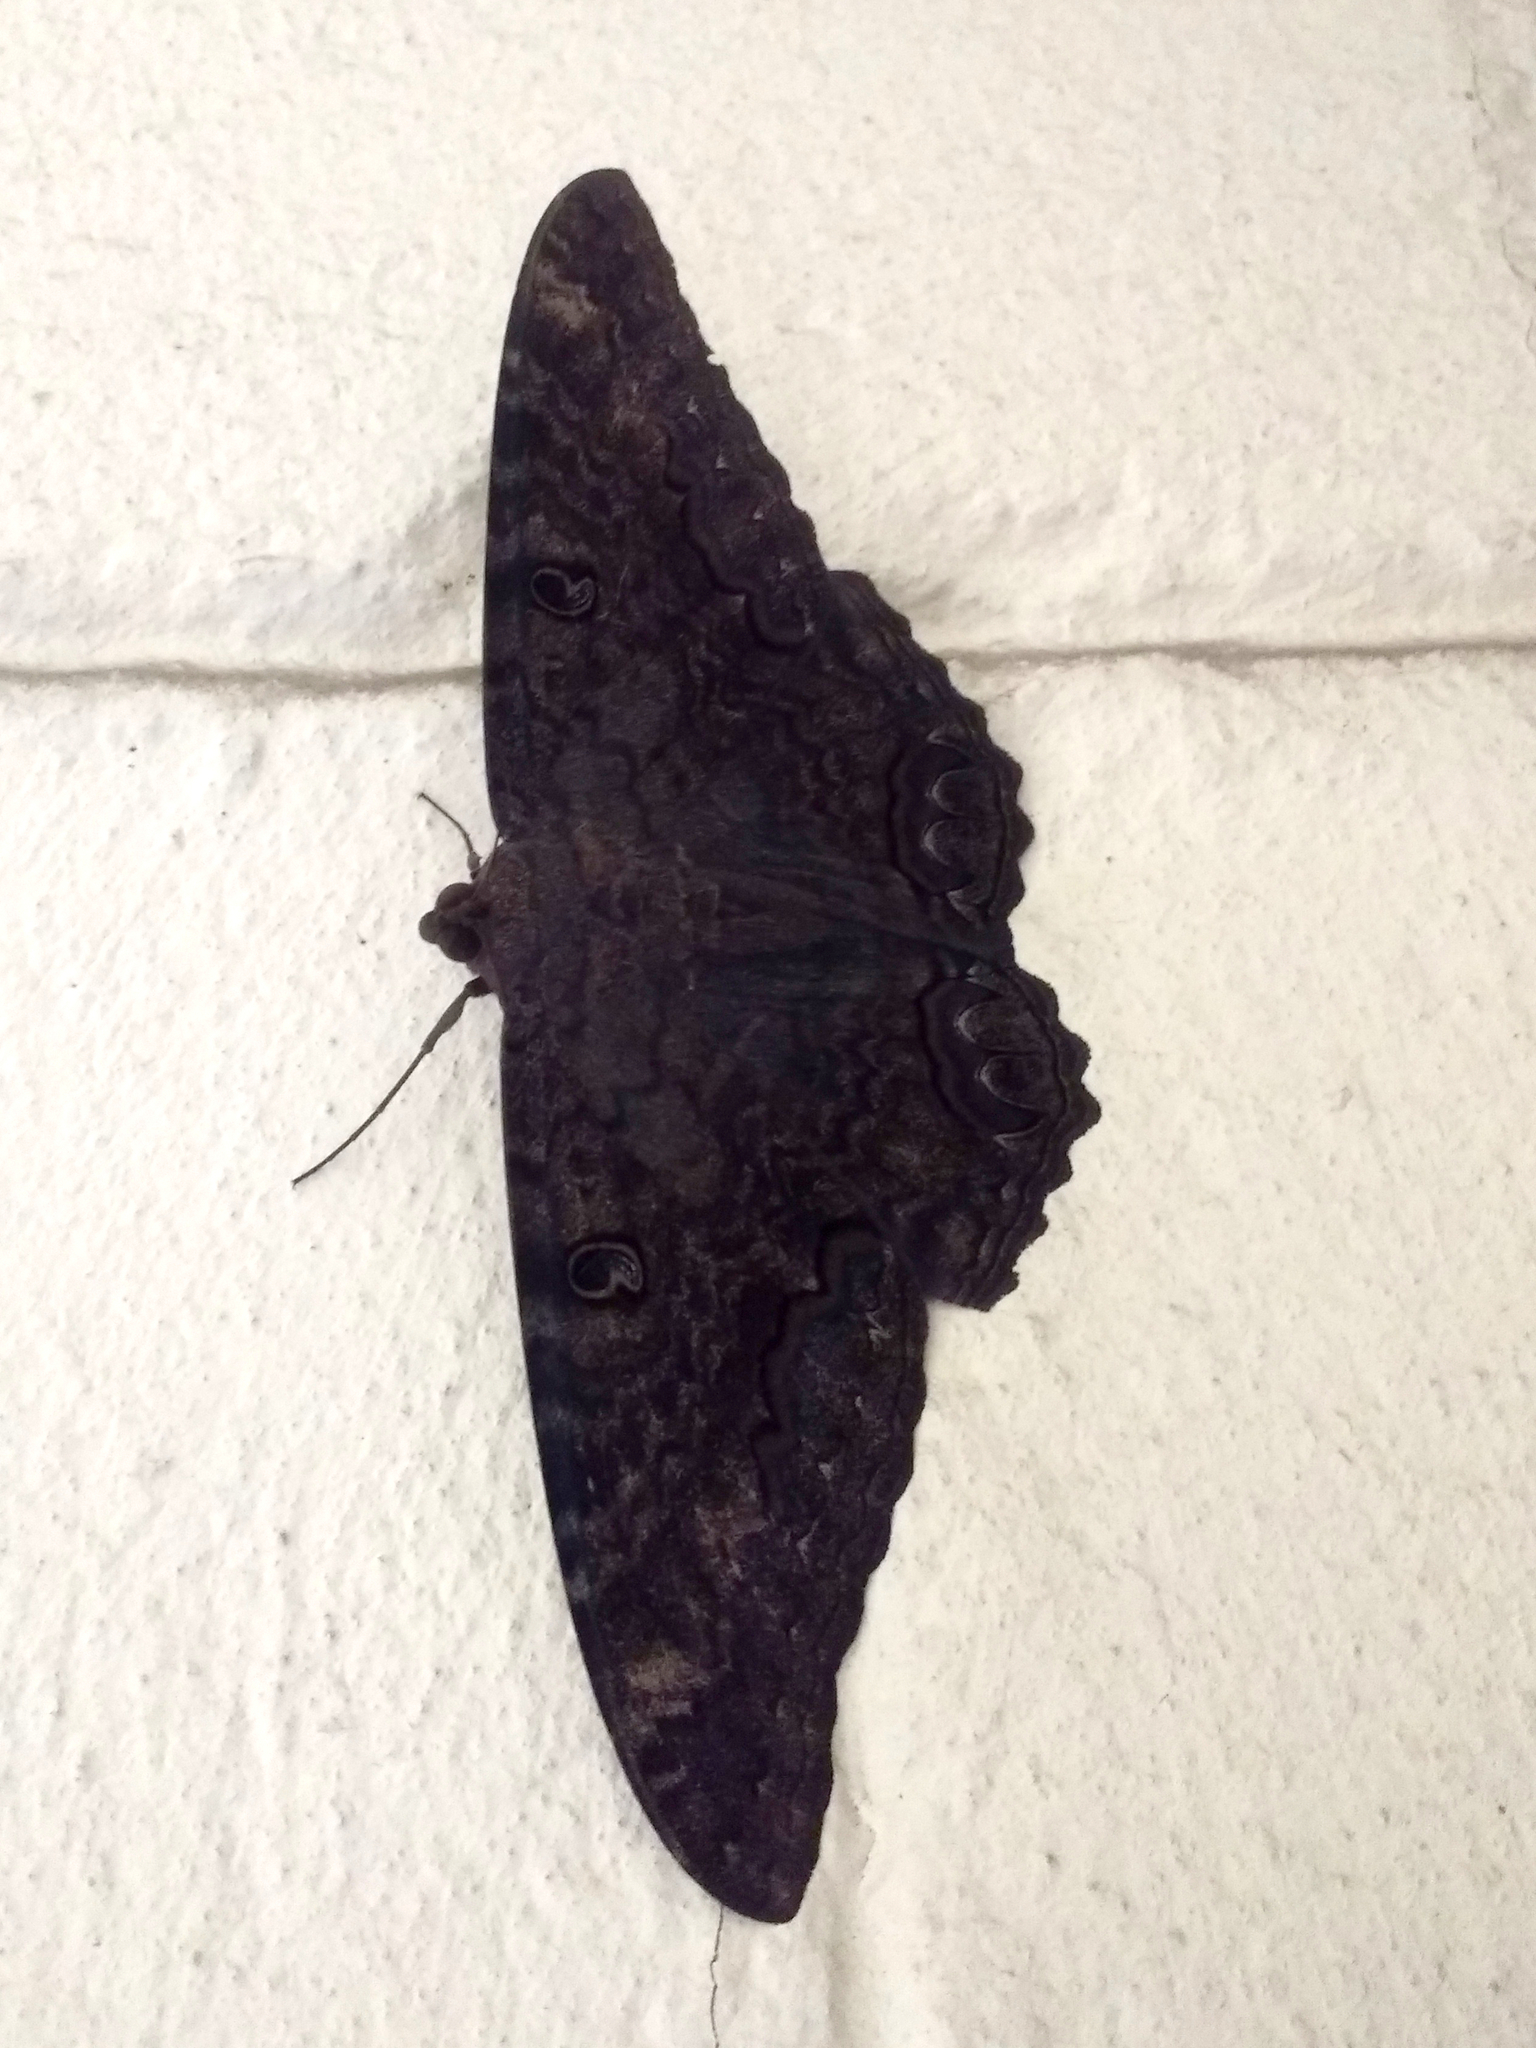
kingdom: Animalia
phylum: Arthropoda
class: Insecta
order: Lepidoptera
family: Erebidae
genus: Ascalapha
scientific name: Ascalapha odorata
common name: Black witch
